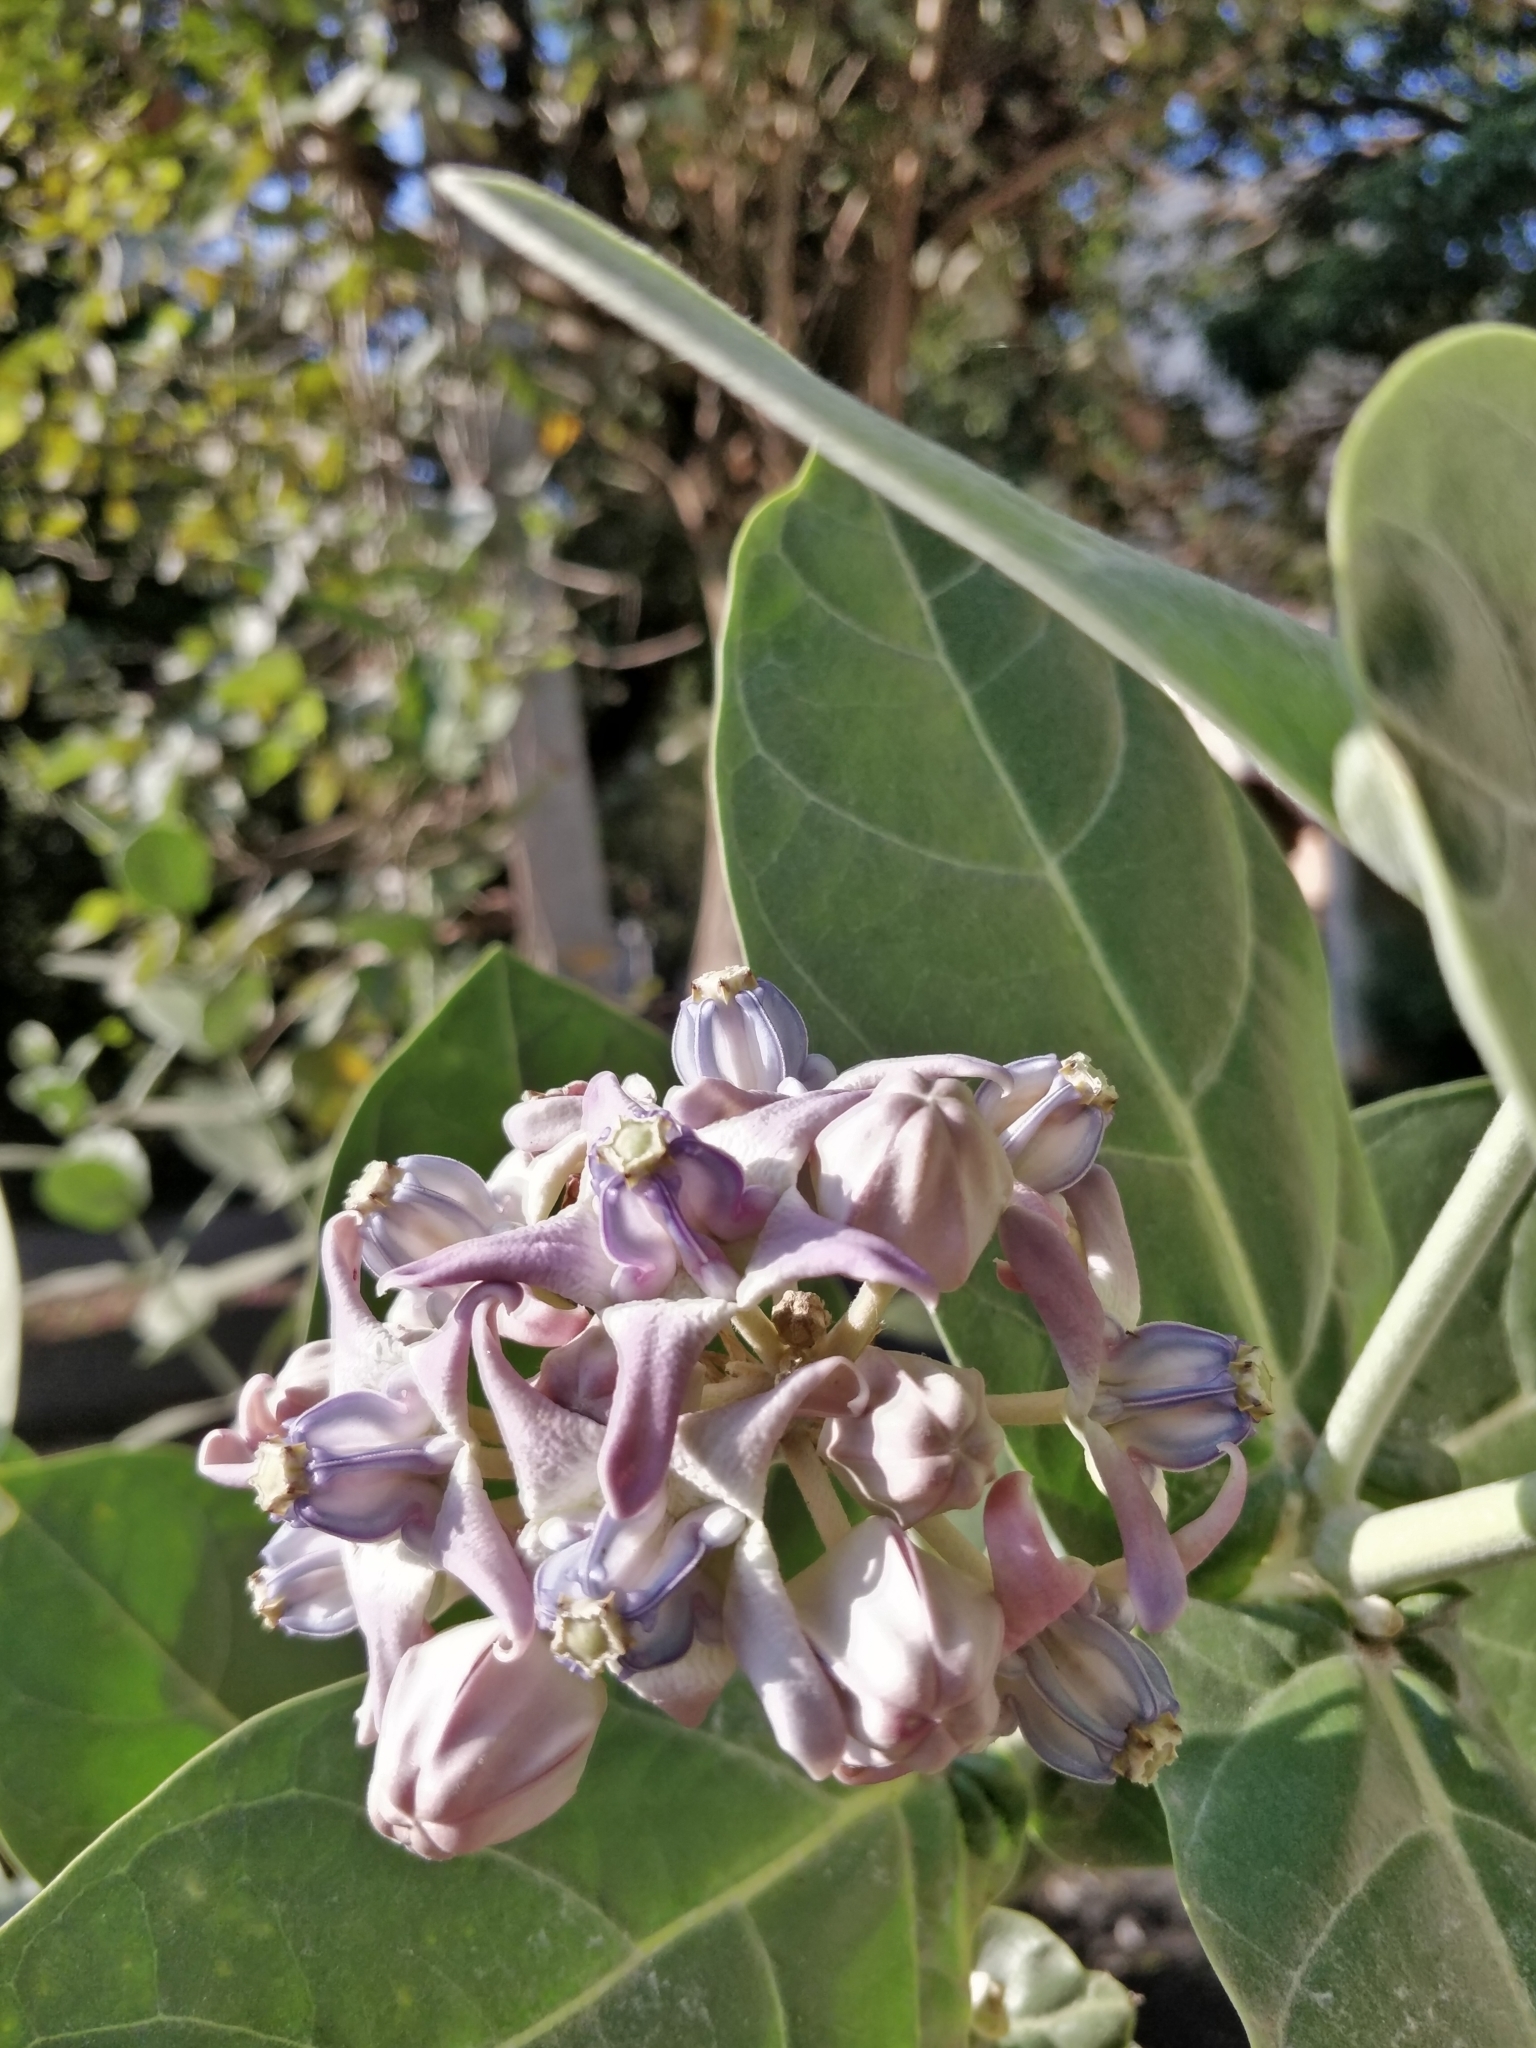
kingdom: Plantae
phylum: Tracheophyta
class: Magnoliopsida
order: Gentianales
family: Apocynaceae
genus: Calotropis
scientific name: Calotropis gigantea
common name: Crown flower
